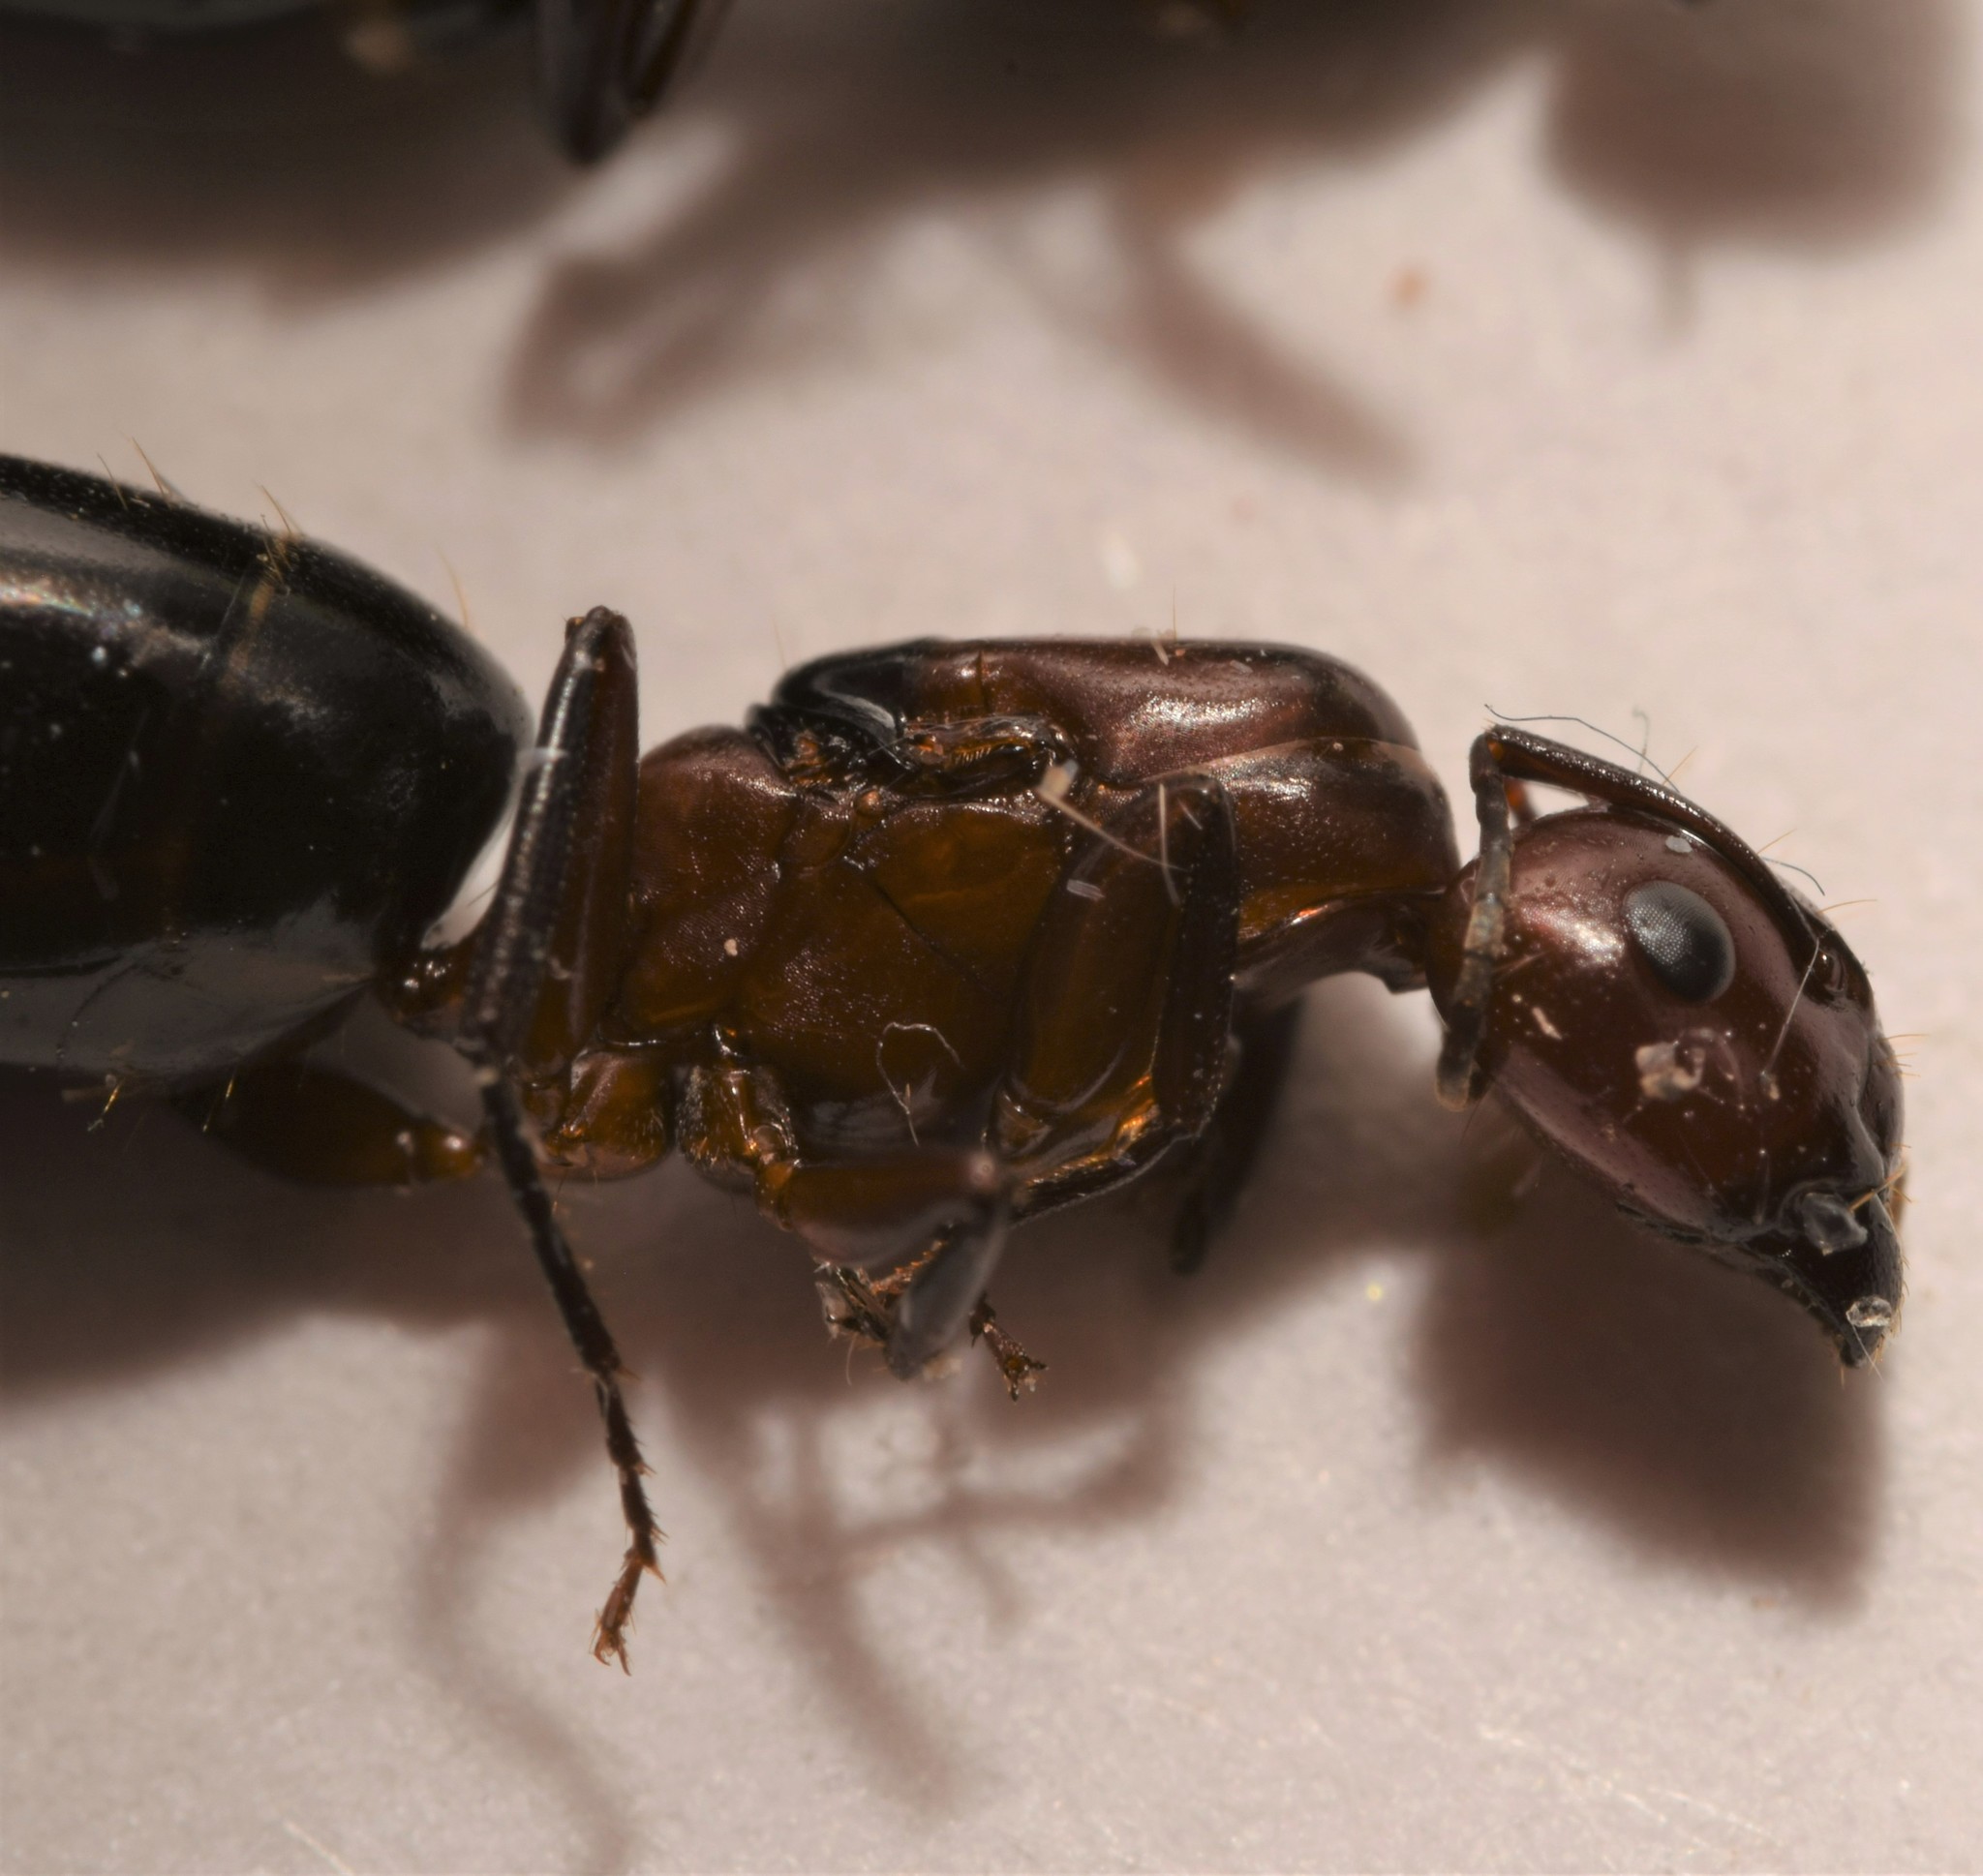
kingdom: Animalia
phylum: Arthropoda
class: Insecta
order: Hymenoptera
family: Formicidae
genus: Camponotus
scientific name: Camponotus decipiens
